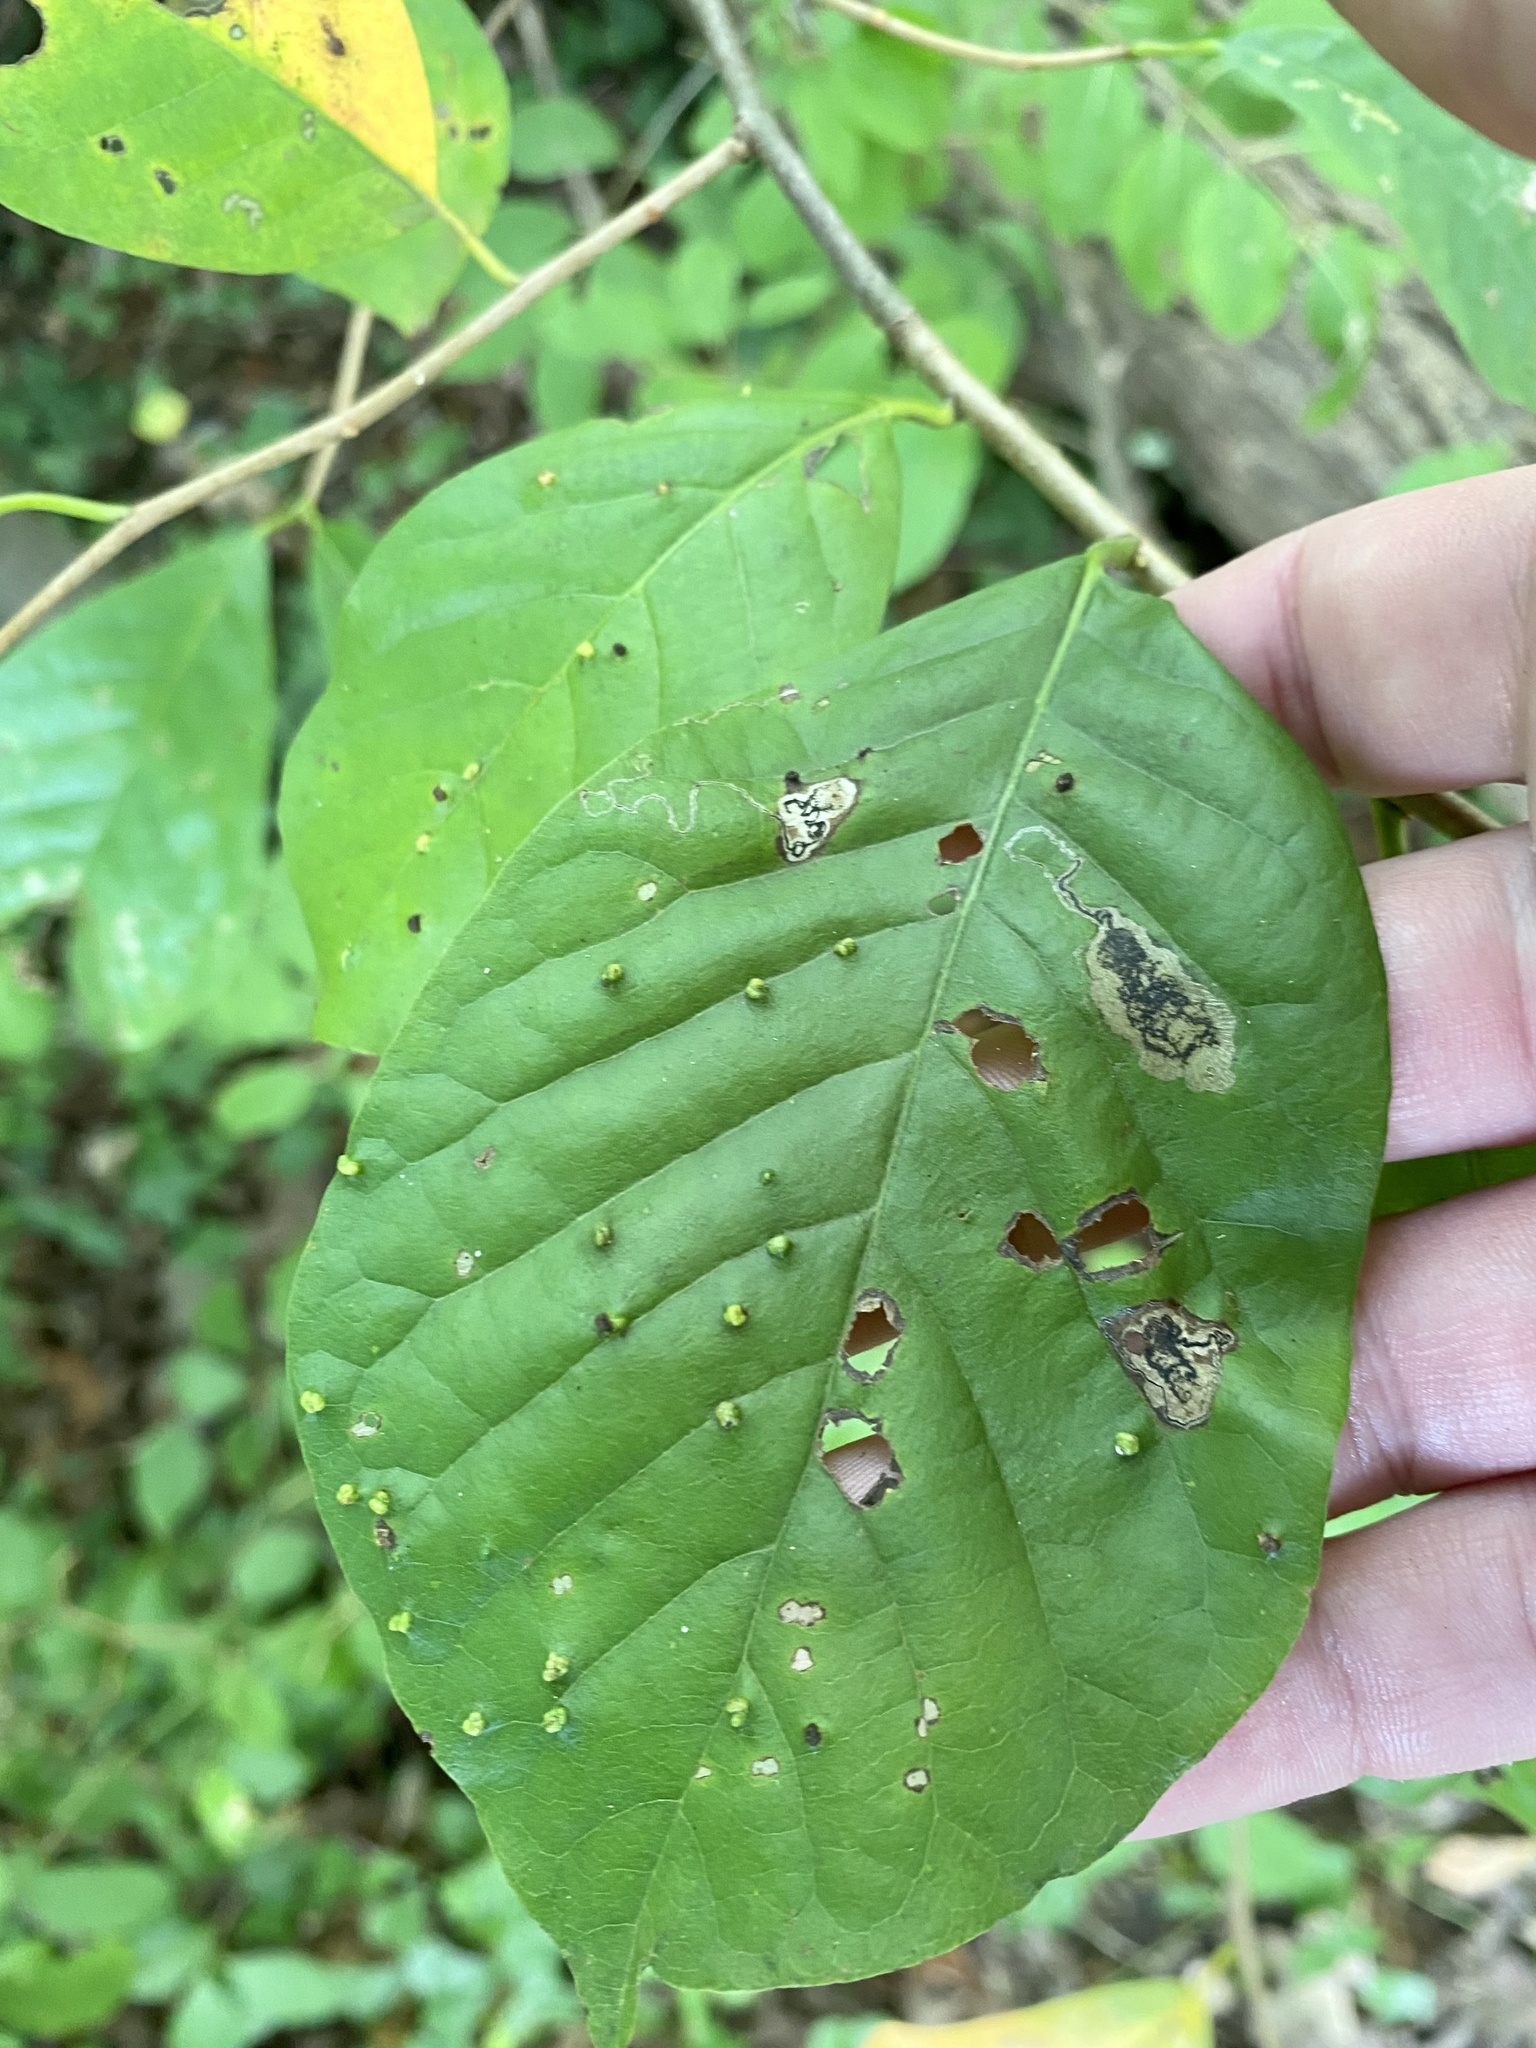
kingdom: Animalia
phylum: Arthropoda
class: Arachnida
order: Trombidiformes
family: Eriophyidae
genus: Aceria
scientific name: Aceria
